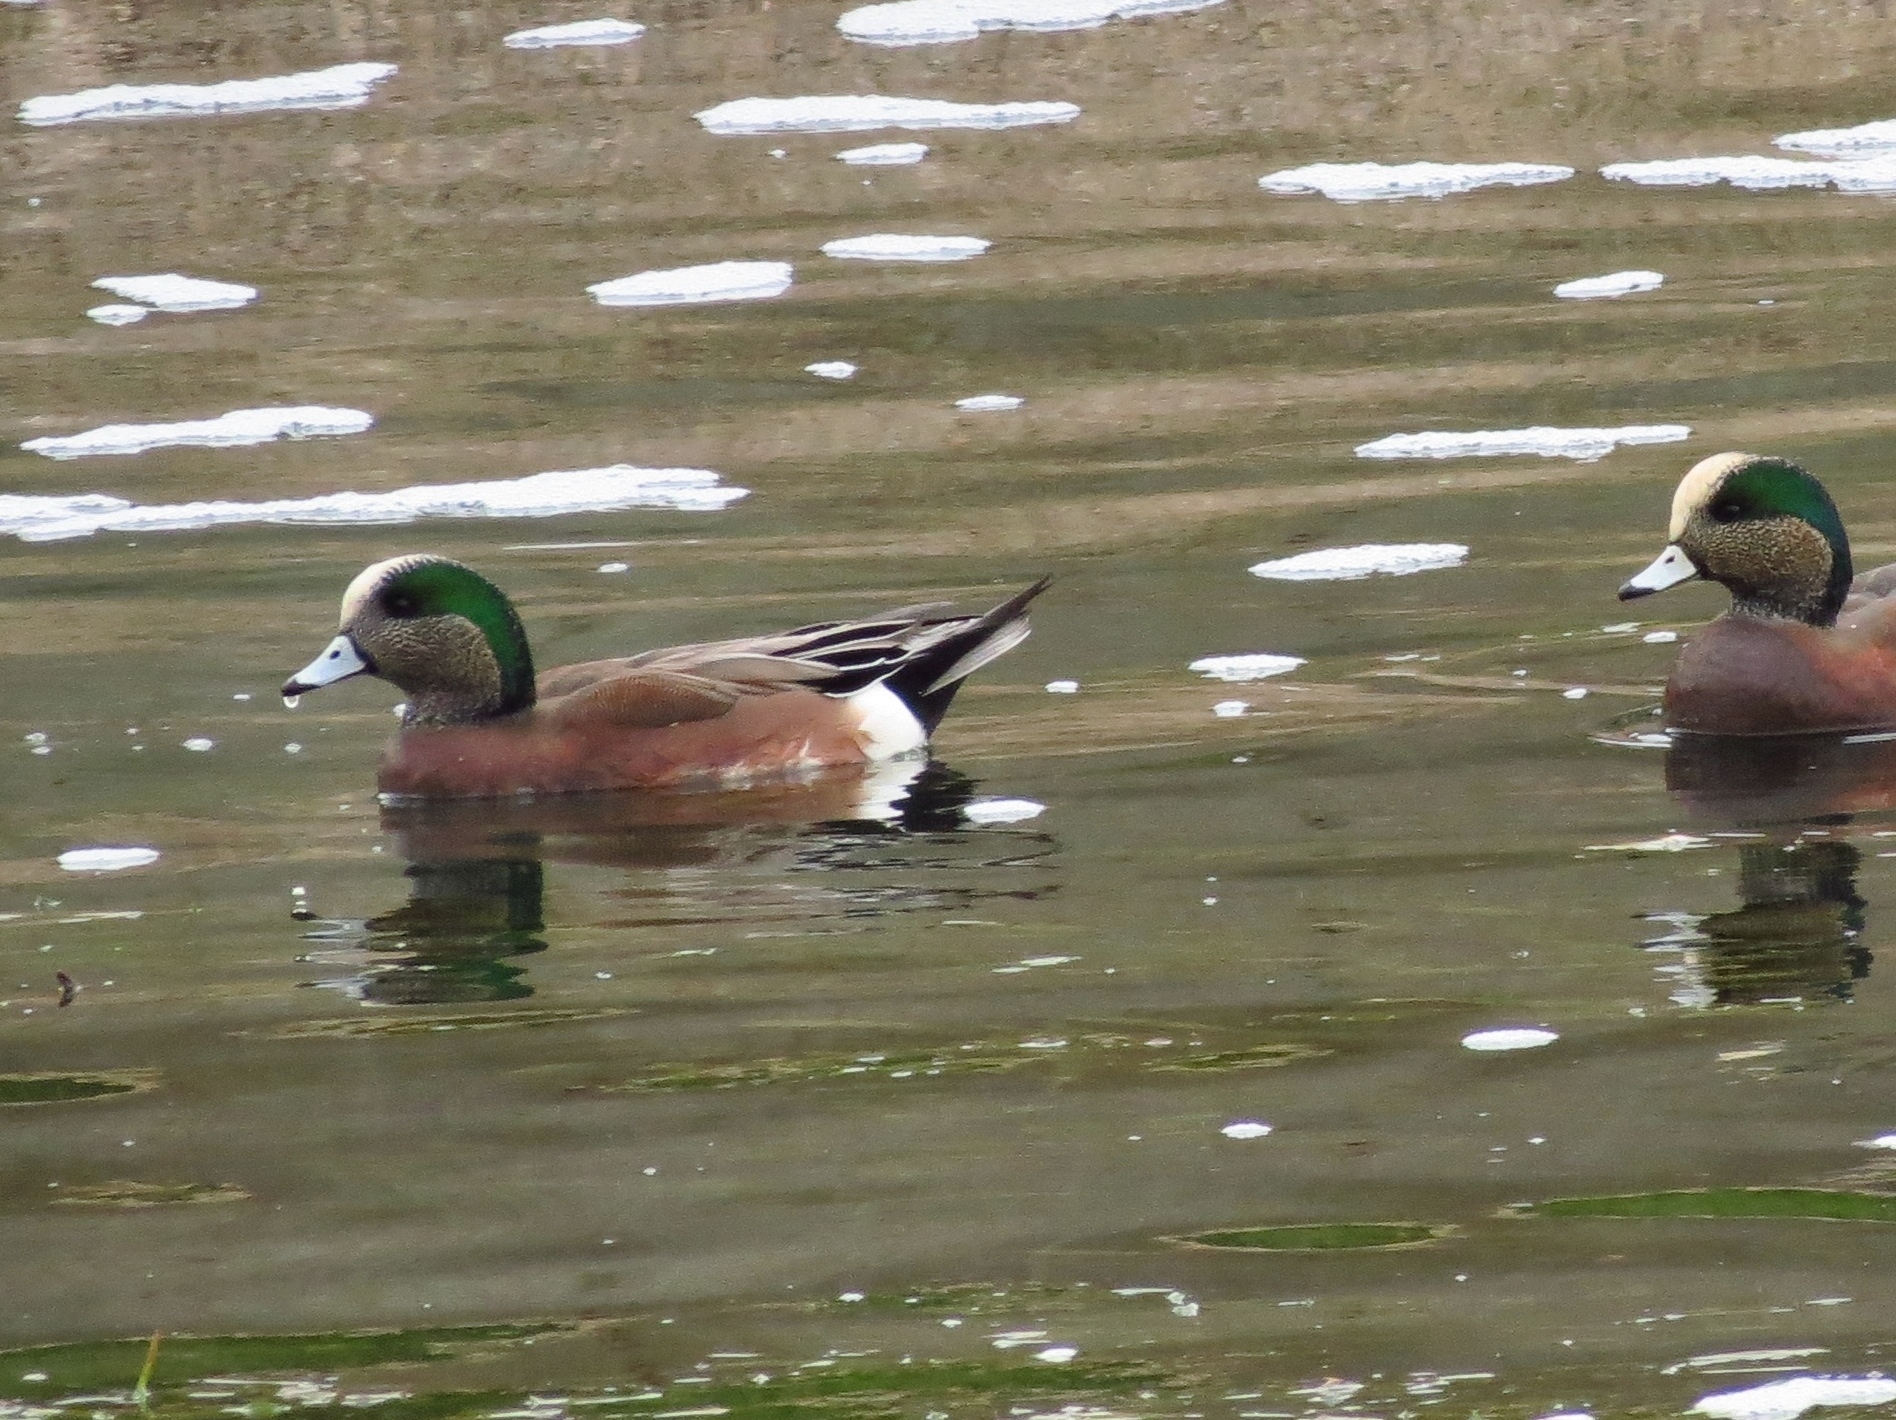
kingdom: Animalia
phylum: Chordata
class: Aves
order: Anseriformes
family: Anatidae
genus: Mareca
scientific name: Mareca americana
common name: American wigeon
